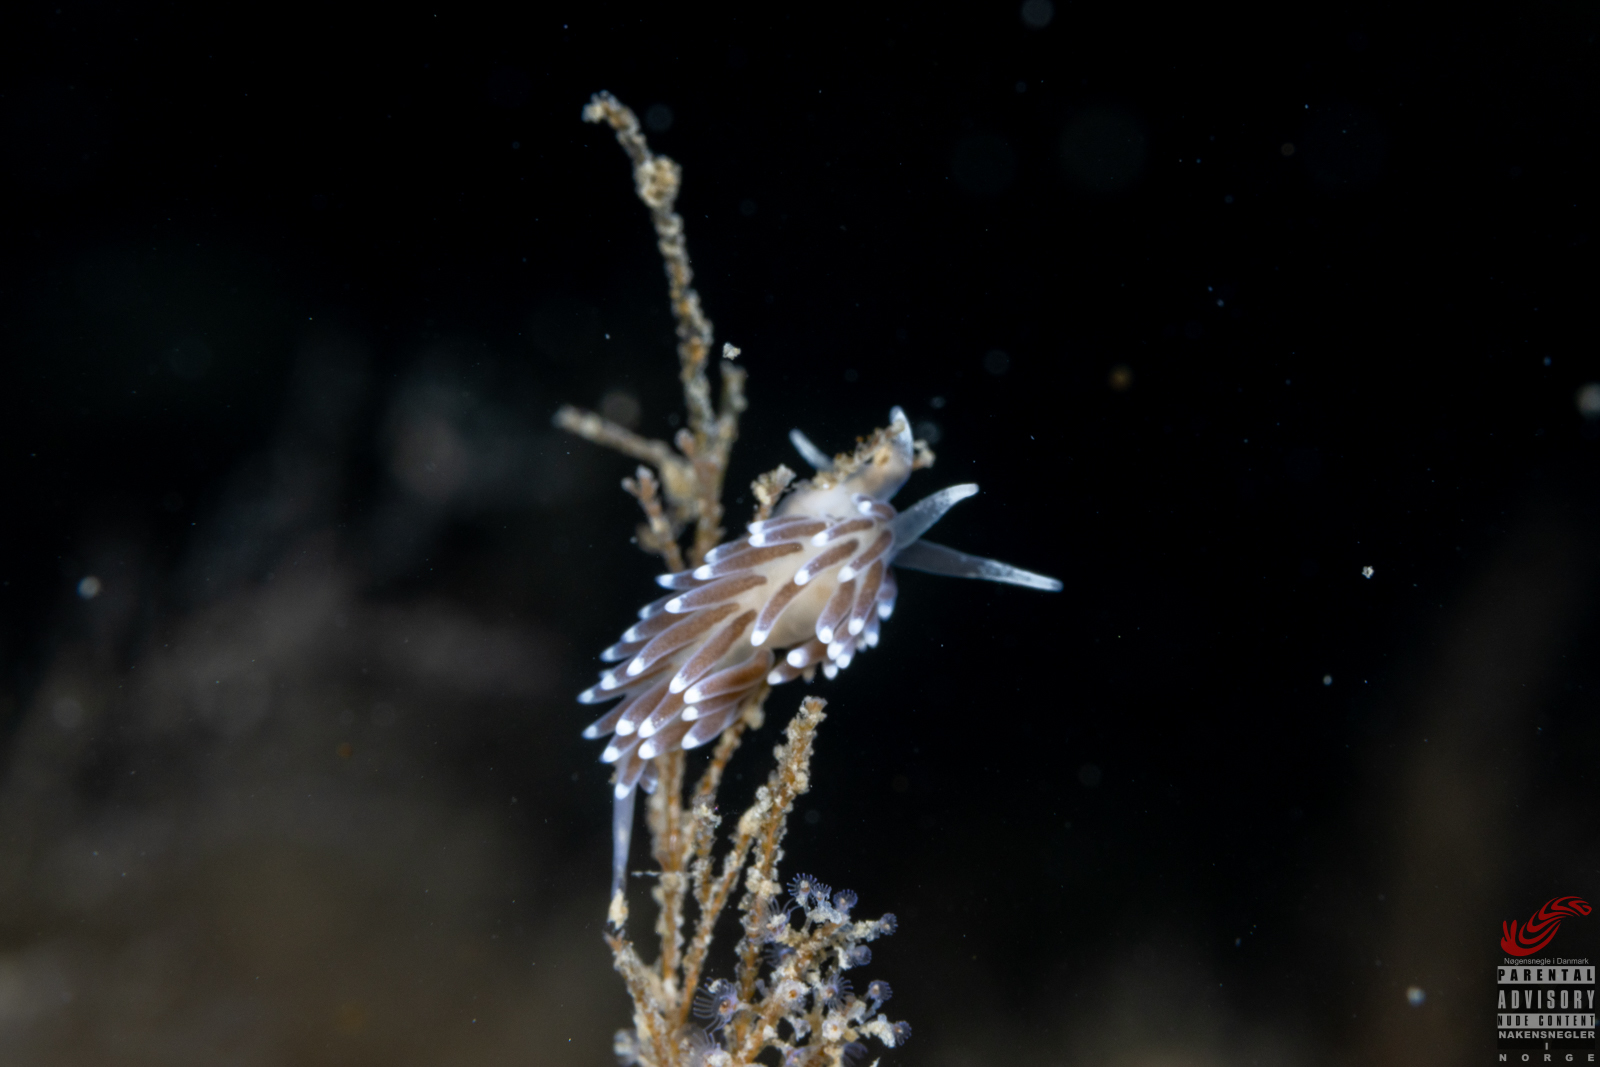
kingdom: Animalia
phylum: Mollusca
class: Gastropoda
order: Nudibranchia
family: Cuthonellidae
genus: Cuthonella
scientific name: Cuthonella concinna
